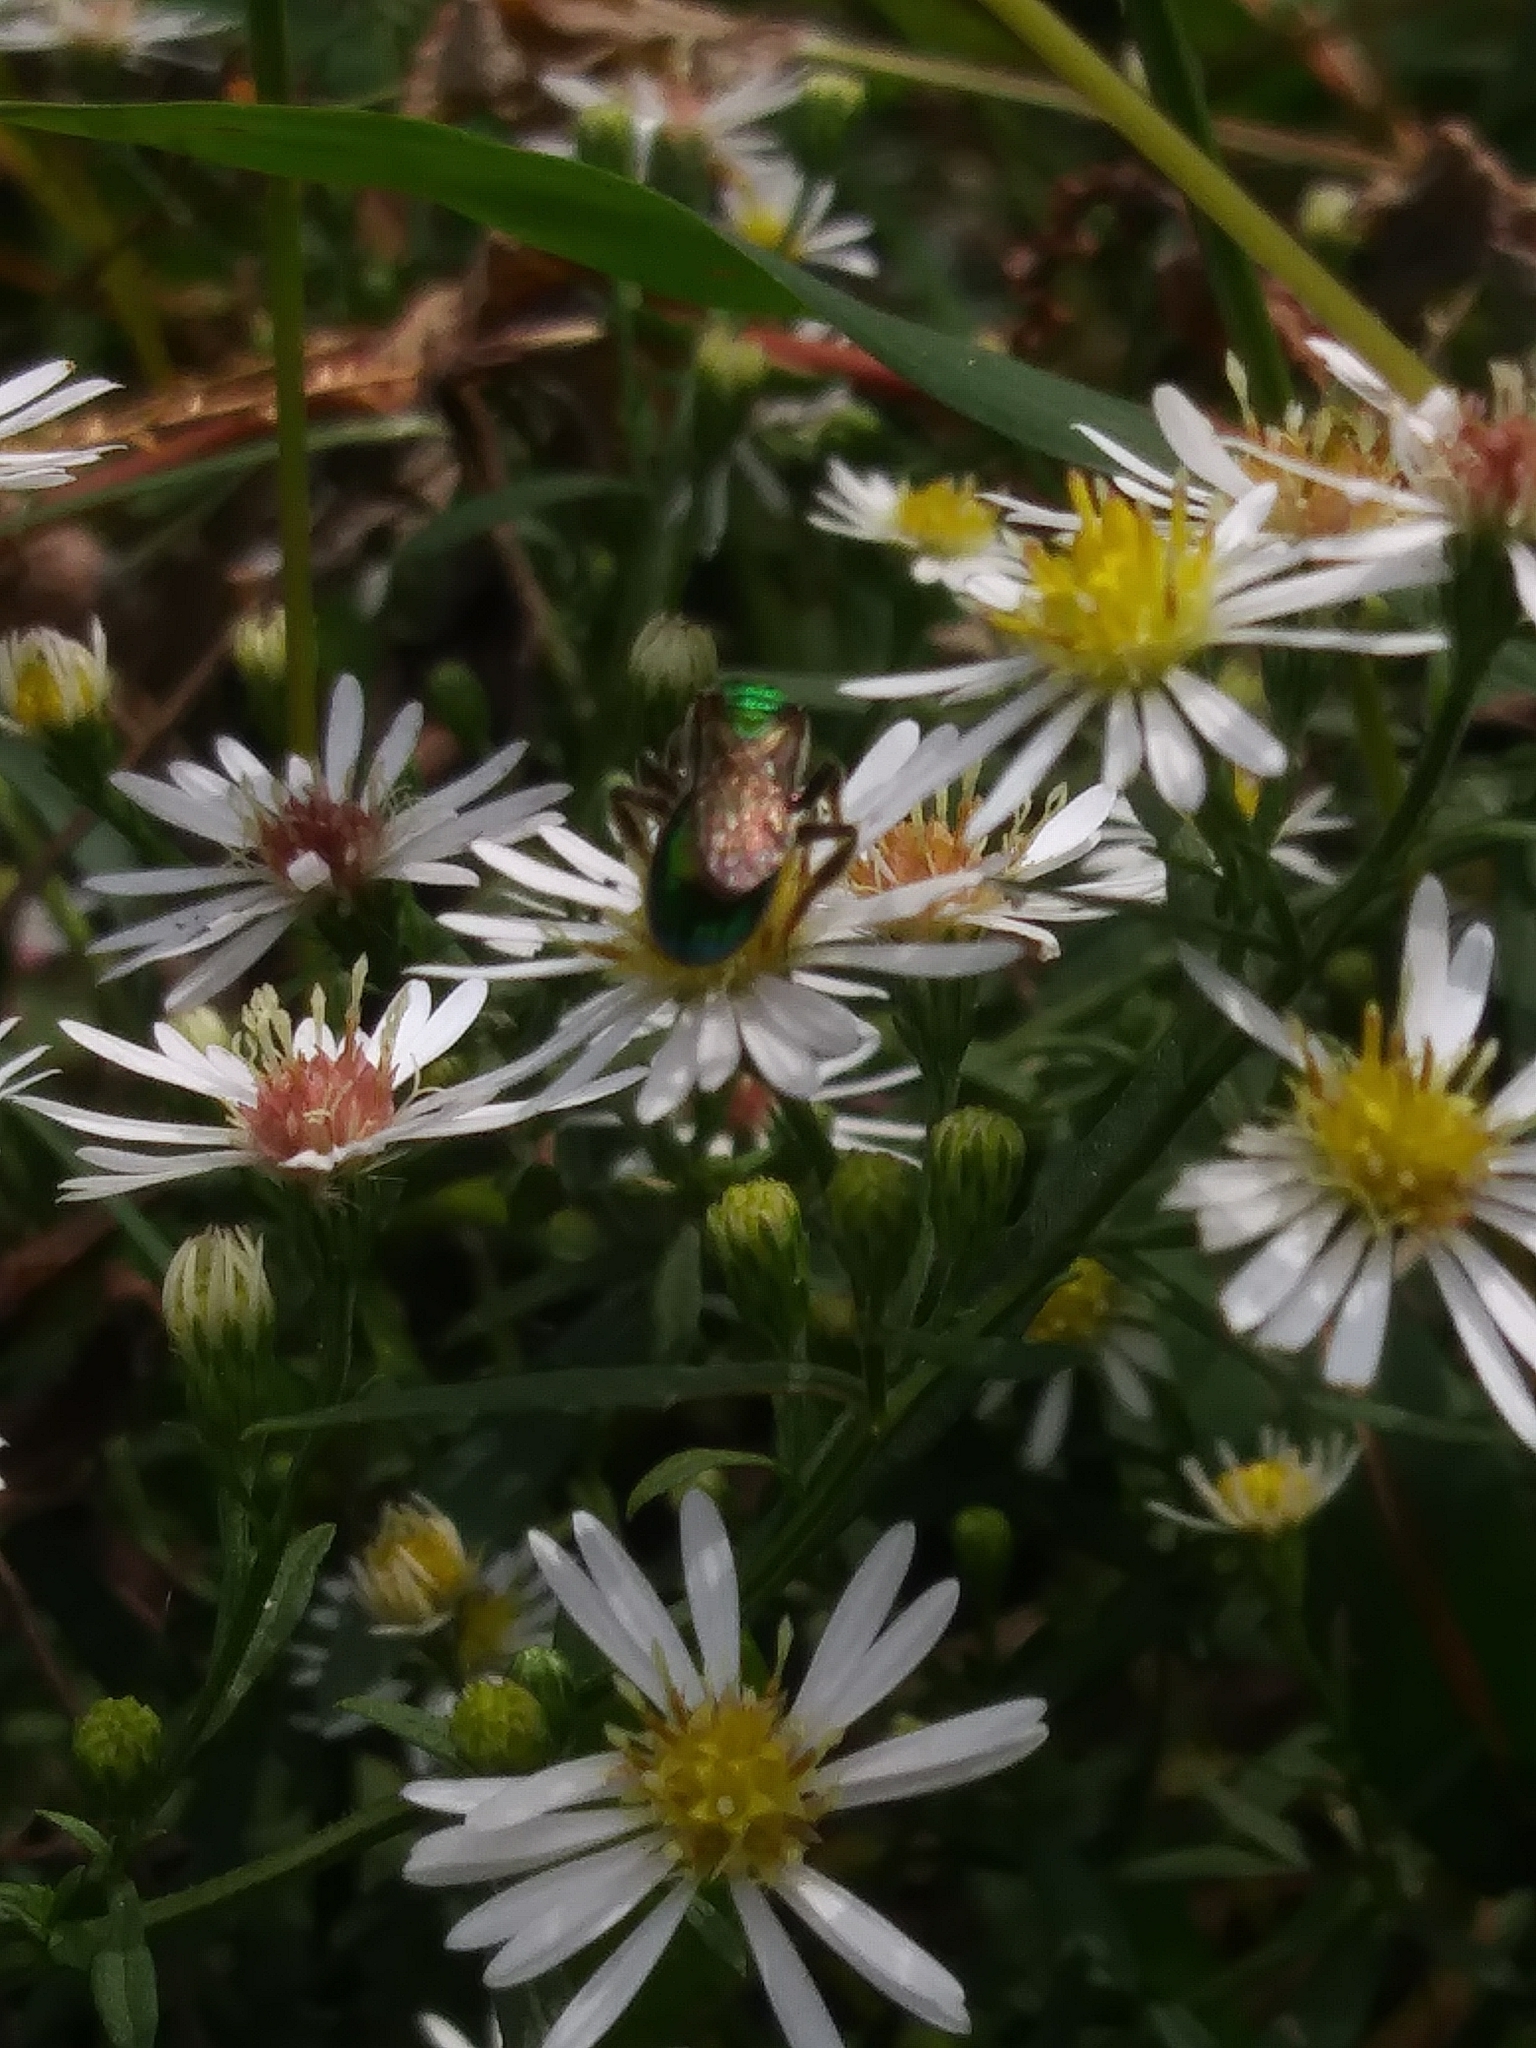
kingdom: Animalia
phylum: Arthropoda
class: Insecta
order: Hymenoptera
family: Halictidae
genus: Augochlora
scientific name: Augochlora pura
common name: Pure green sweat bee
